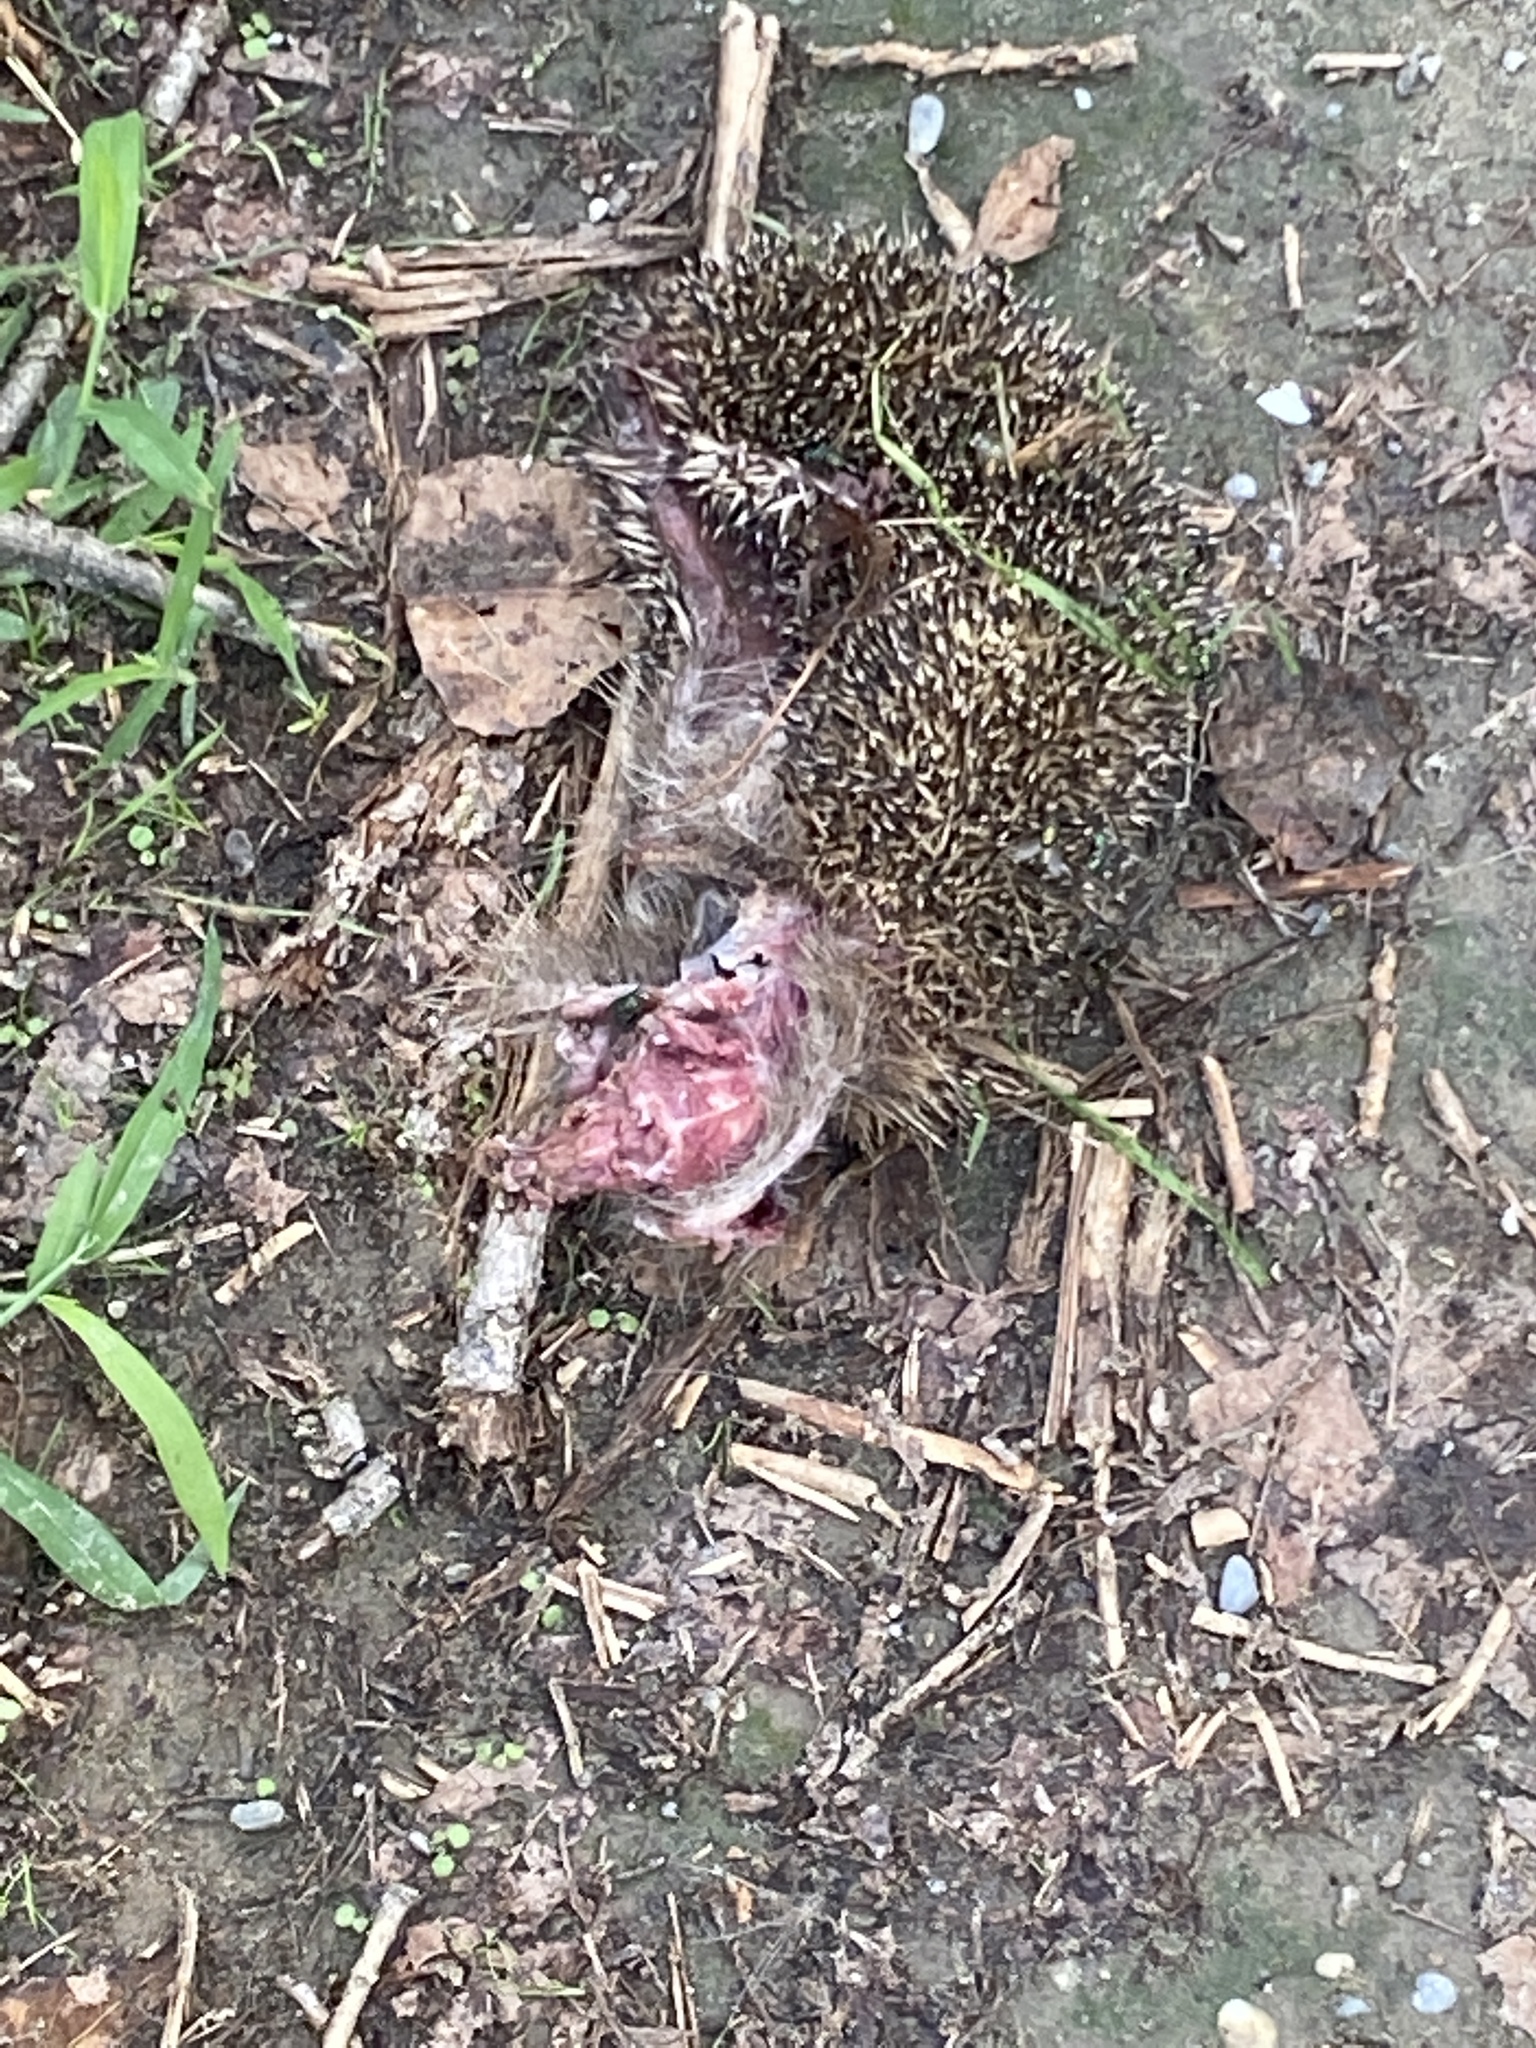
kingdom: Animalia
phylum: Chordata
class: Mammalia
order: Erinaceomorpha
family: Erinaceidae
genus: Erinaceus
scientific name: Erinaceus europaeus
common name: West european hedgehog
